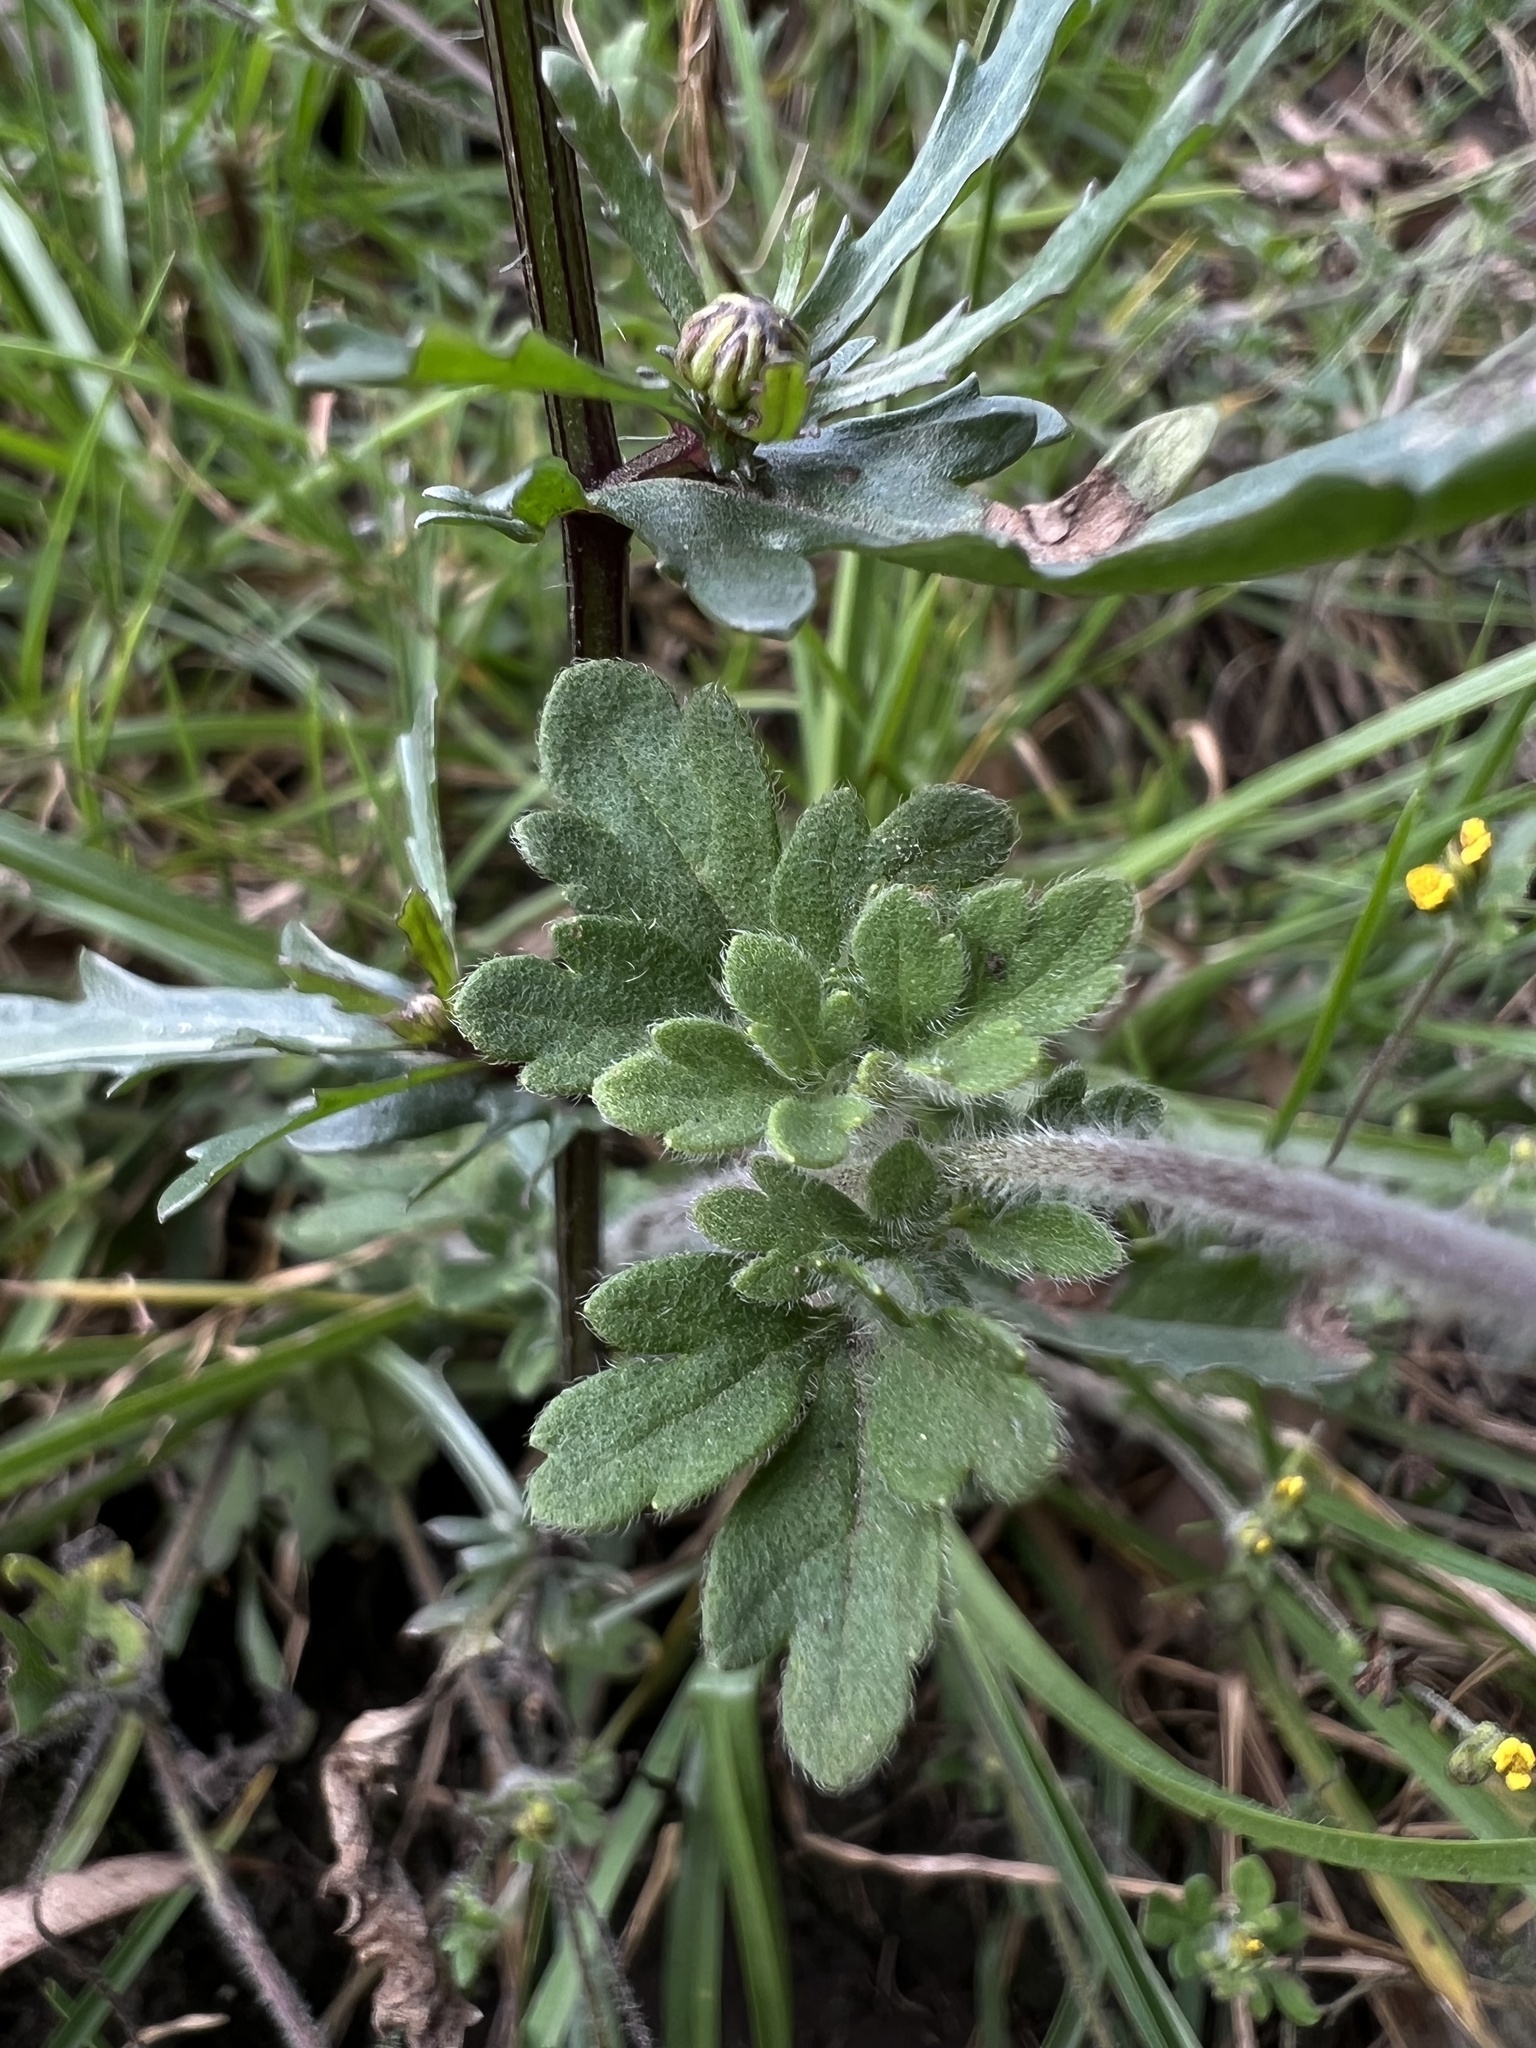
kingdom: Plantae
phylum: Tracheophyta
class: Magnoliopsida
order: Asterales
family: Asteraceae
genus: Villanova
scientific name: Villanova oppositifolia
